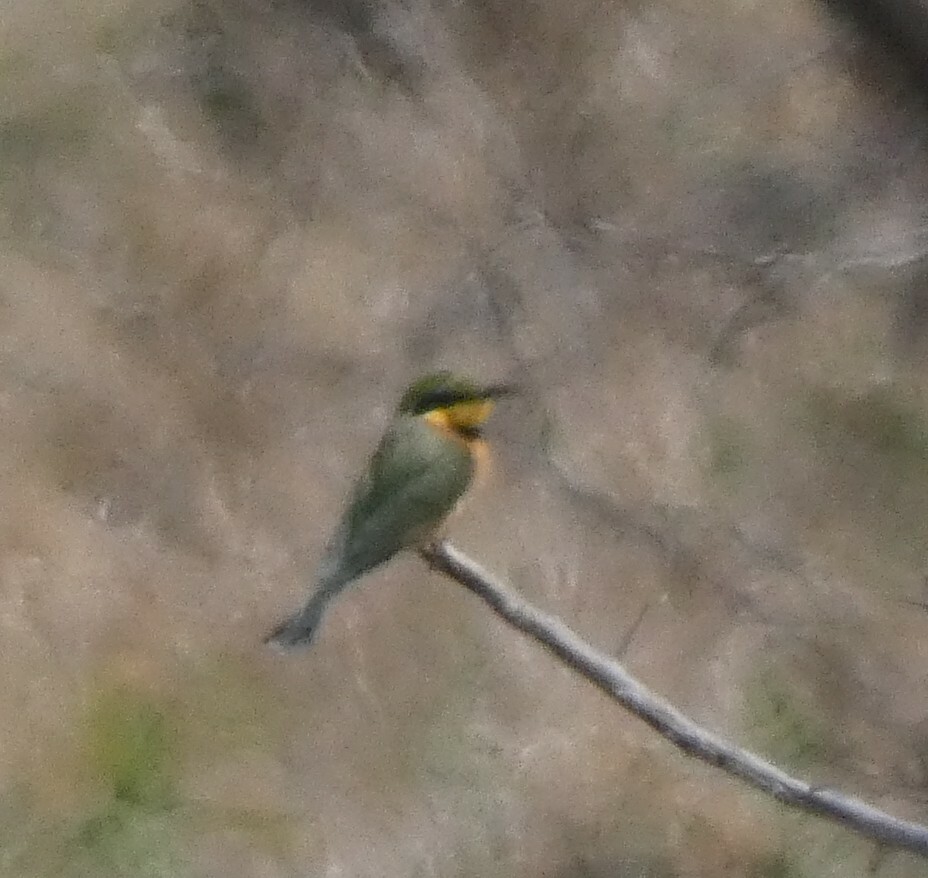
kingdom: Animalia
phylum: Chordata
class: Aves
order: Coraciiformes
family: Meropidae
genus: Merops
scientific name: Merops pusillus
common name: Little bee-eater
